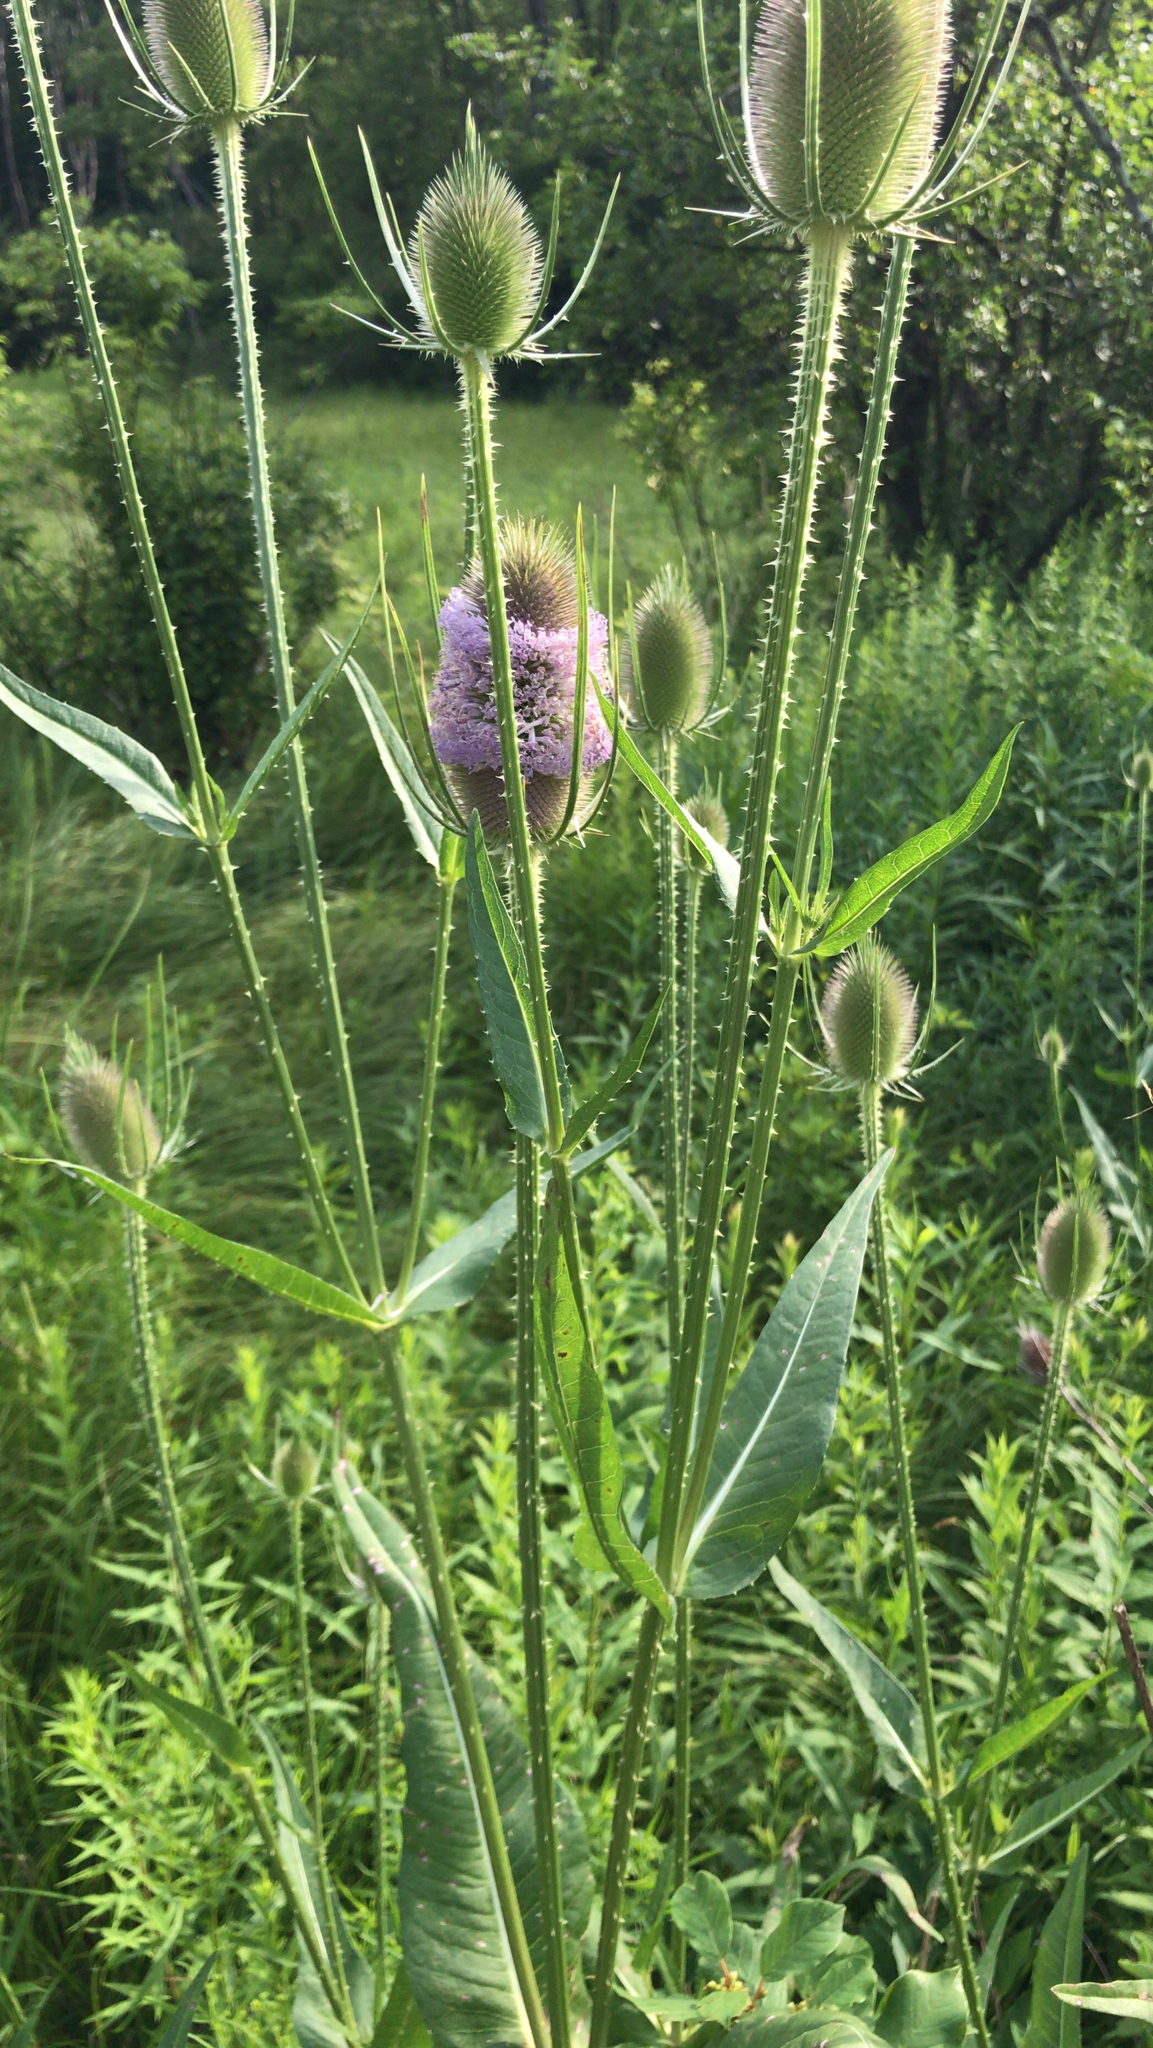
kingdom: Plantae
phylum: Tracheophyta
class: Magnoliopsida
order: Dipsacales
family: Caprifoliaceae
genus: Dipsacus
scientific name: Dipsacus fullonum
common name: Teasel
